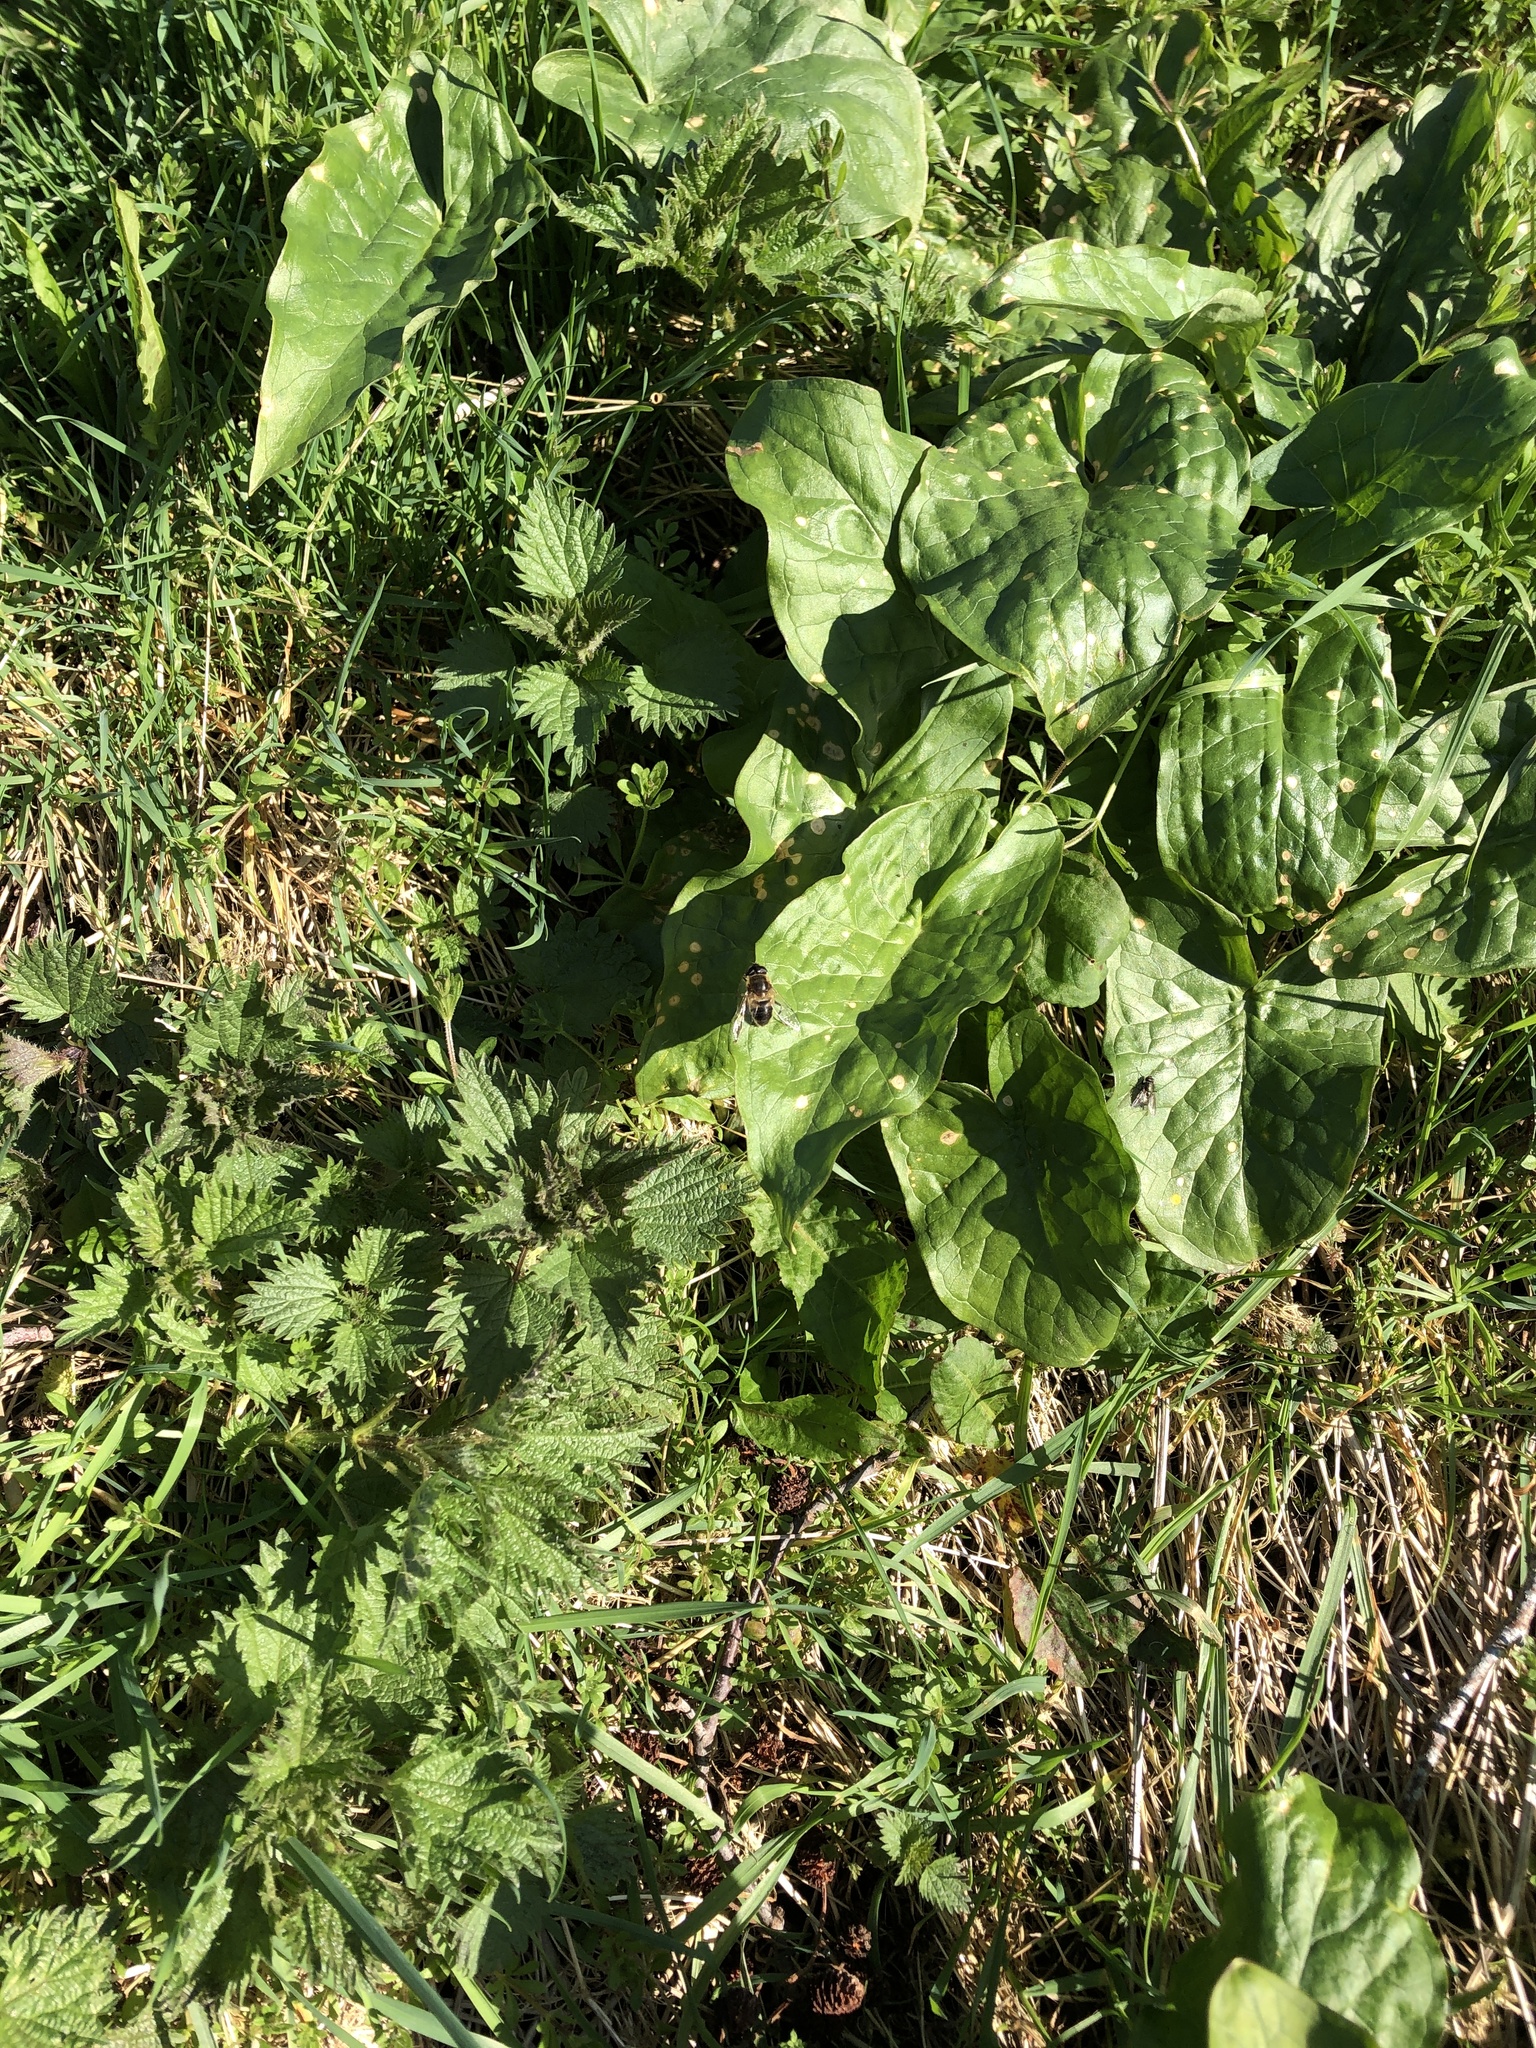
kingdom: Animalia
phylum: Arthropoda
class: Insecta
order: Diptera
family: Syrphidae
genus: Eristalis
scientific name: Eristalis
